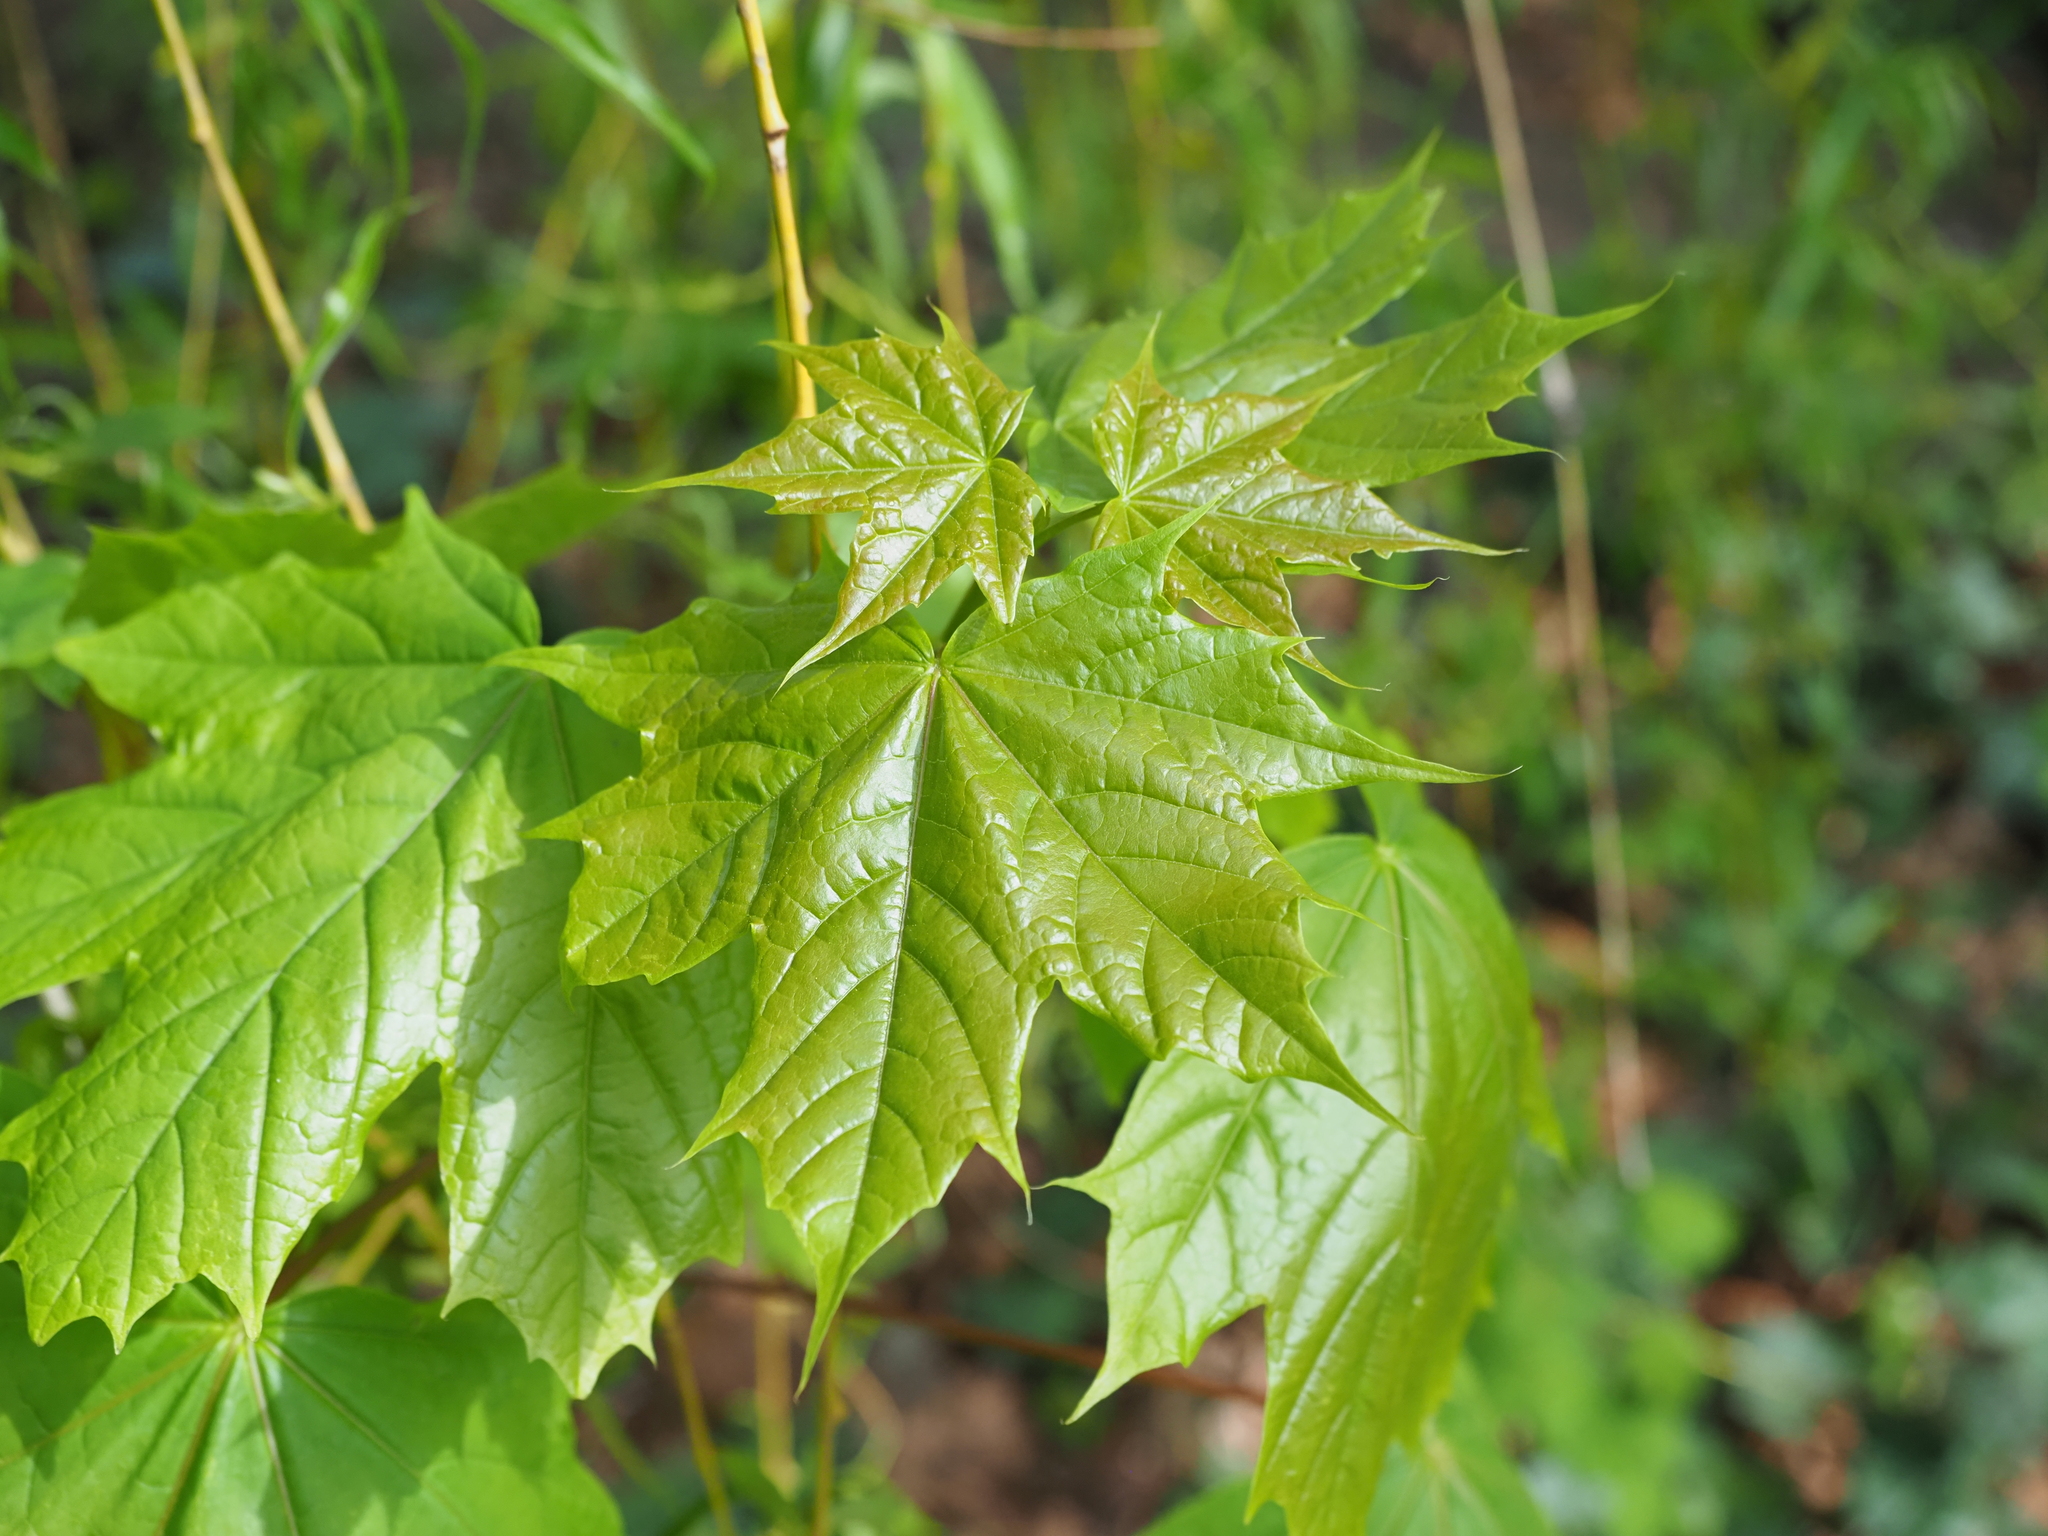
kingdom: Plantae
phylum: Tracheophyta
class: Magnoliopsida
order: Sapindales
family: Sapindaceae
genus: Acer
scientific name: Acer platanoides
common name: Norway maple
